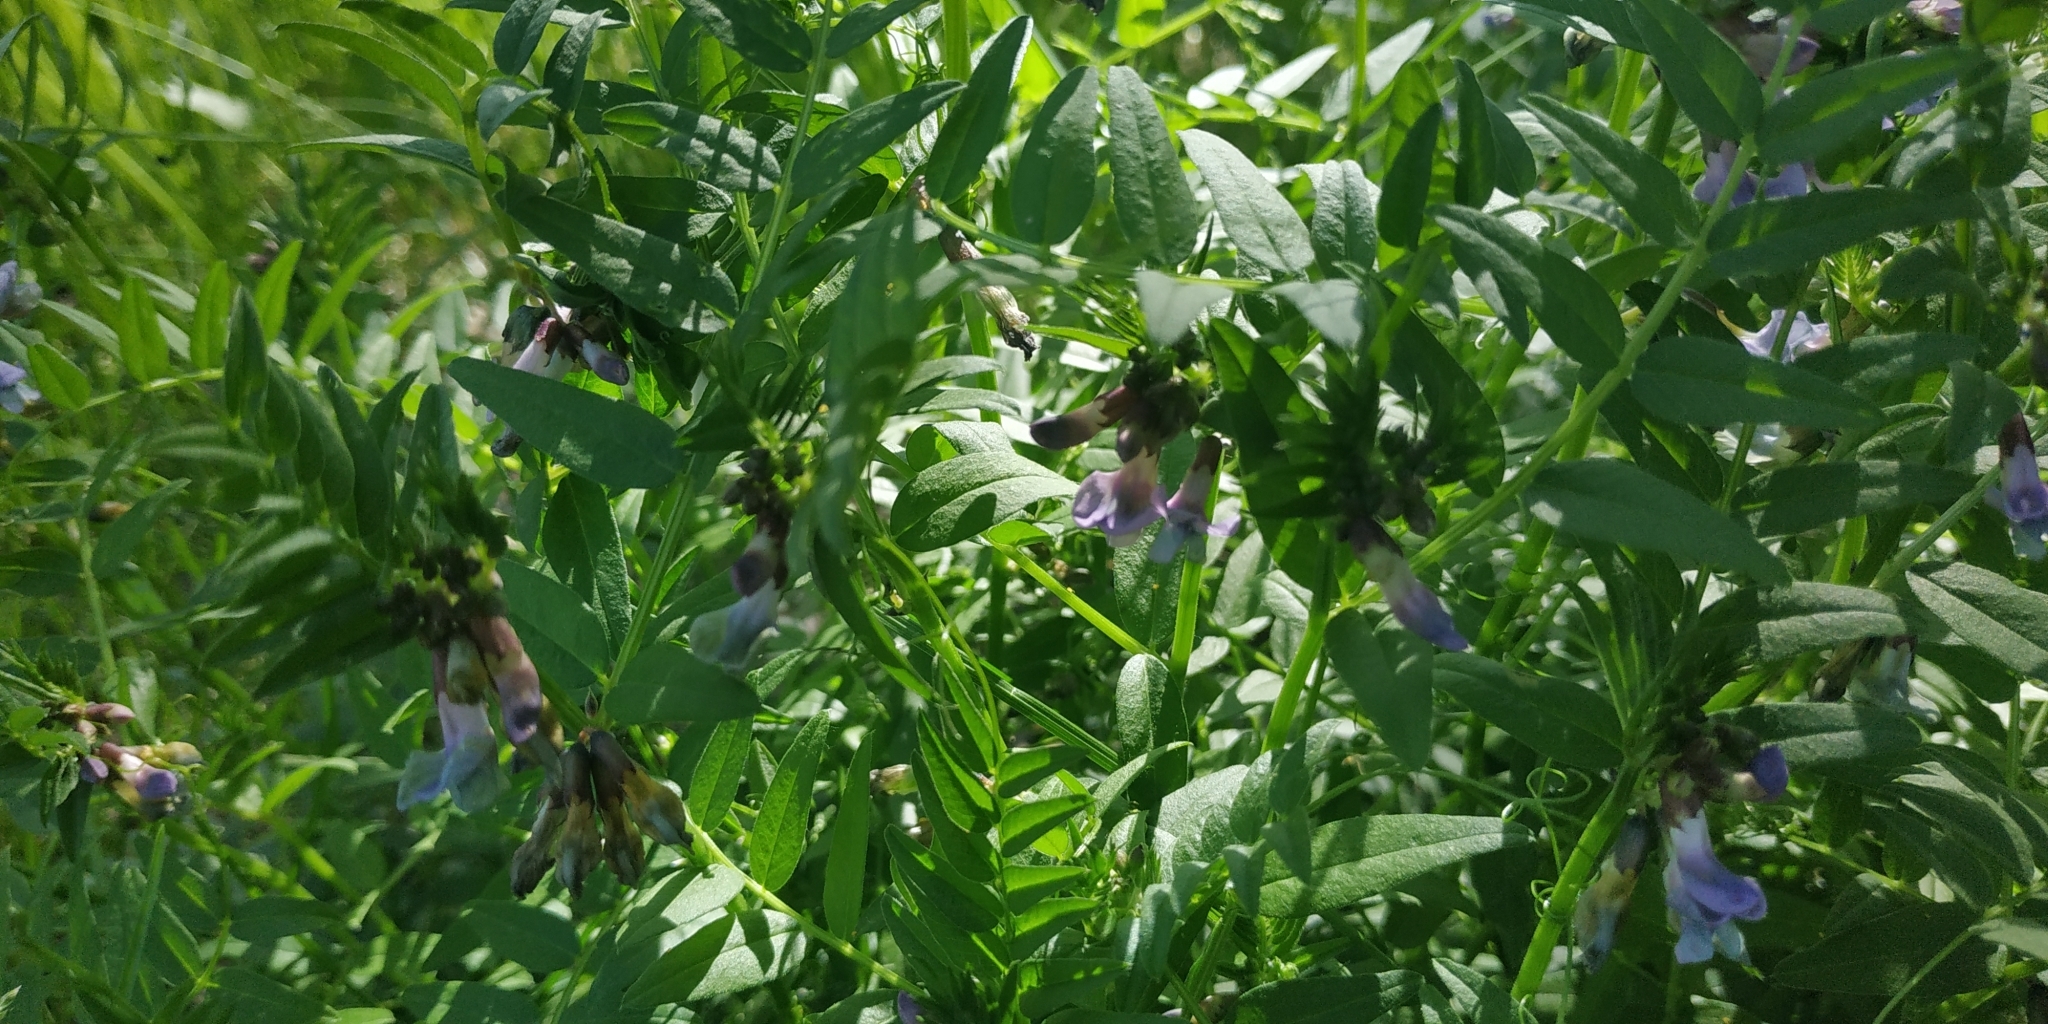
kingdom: Plantae
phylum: Tracheophyta
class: Magnoliopsida
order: Fabales
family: Fabaceae
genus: Vicia
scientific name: Vicia sepium
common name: Bush vetch
